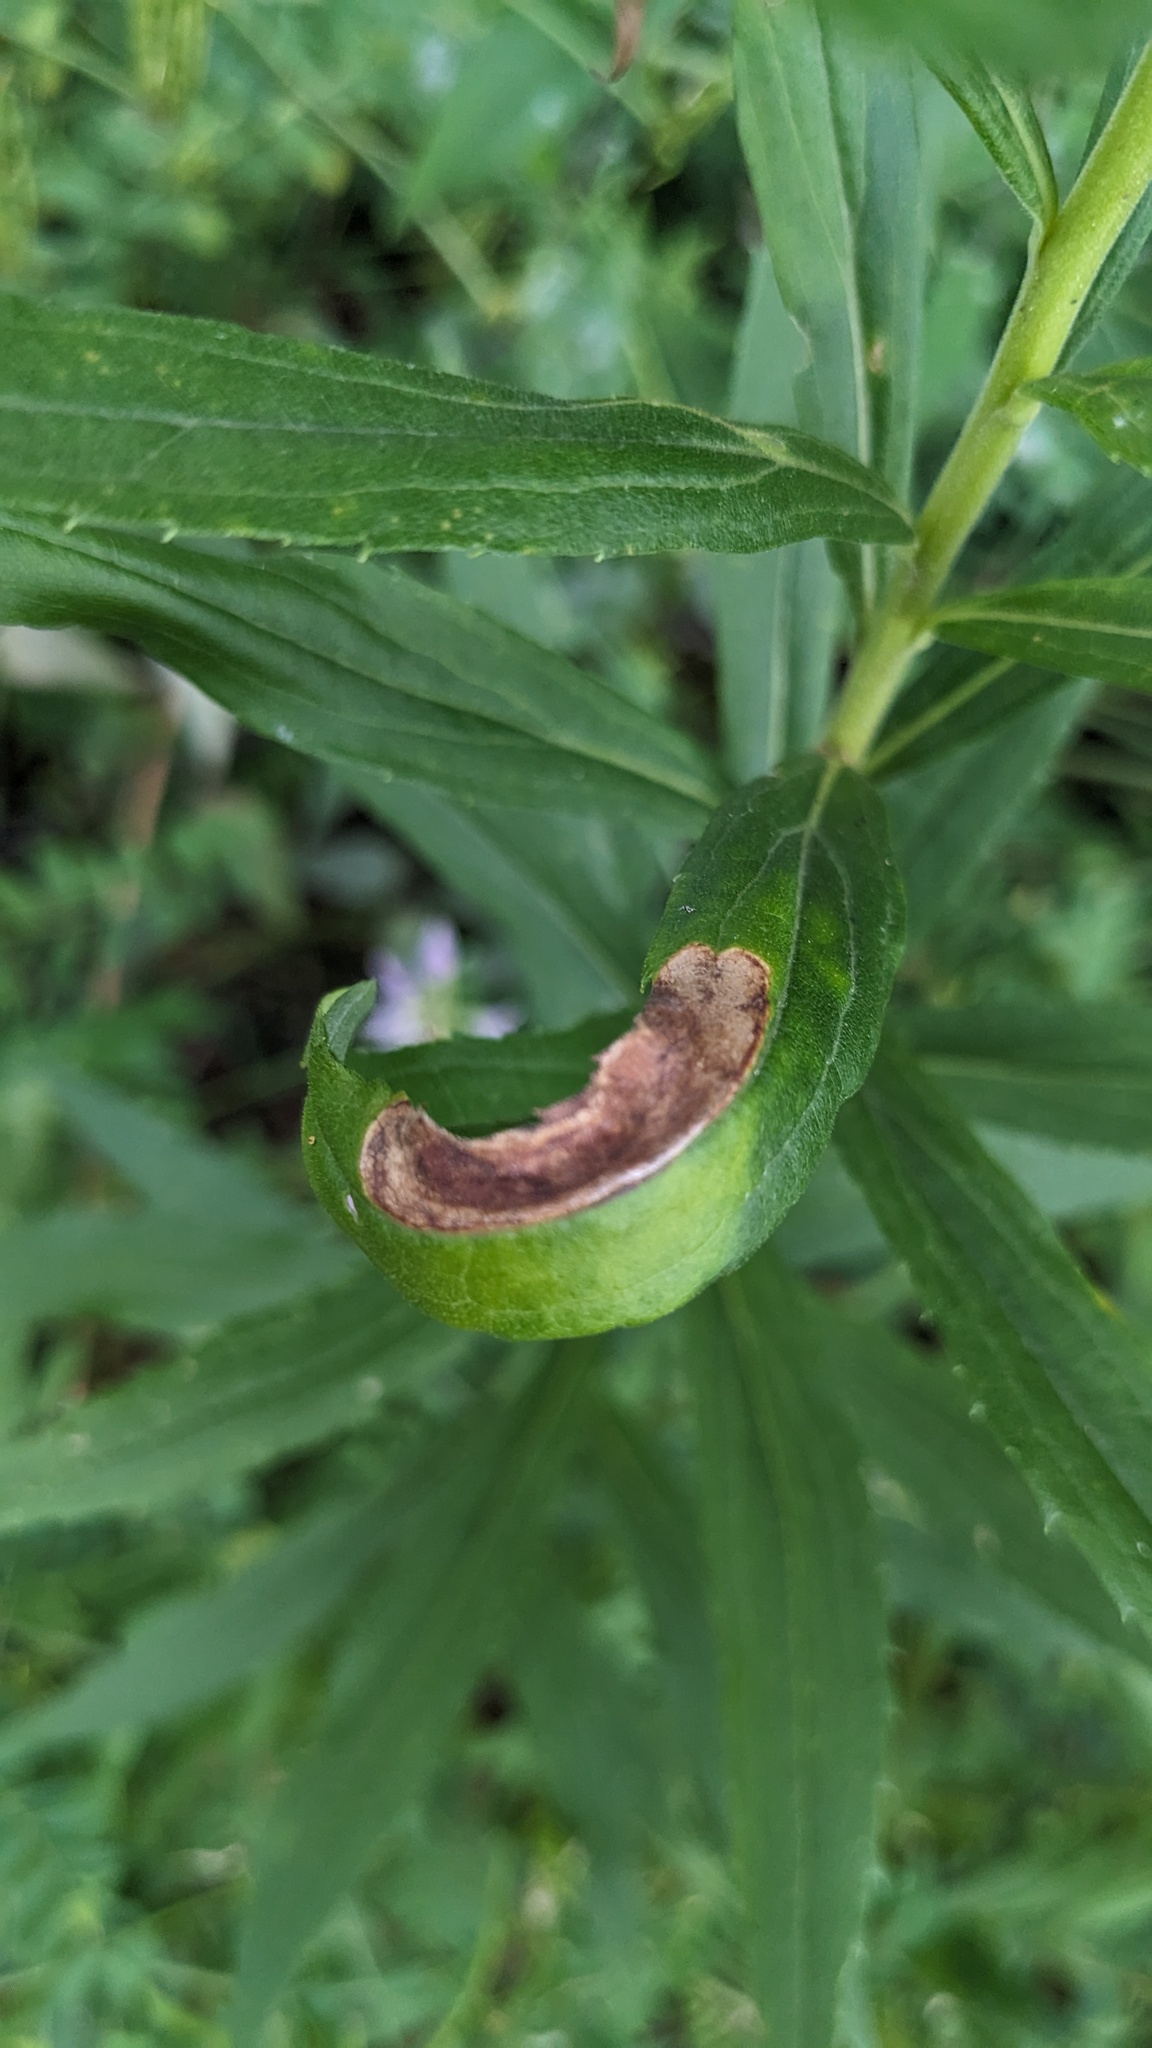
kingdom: Animalia
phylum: Arthropoda
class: Insecta
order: Diptera
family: Agromyzidae
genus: Nemorimyza
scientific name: Nemorimyza posticata
